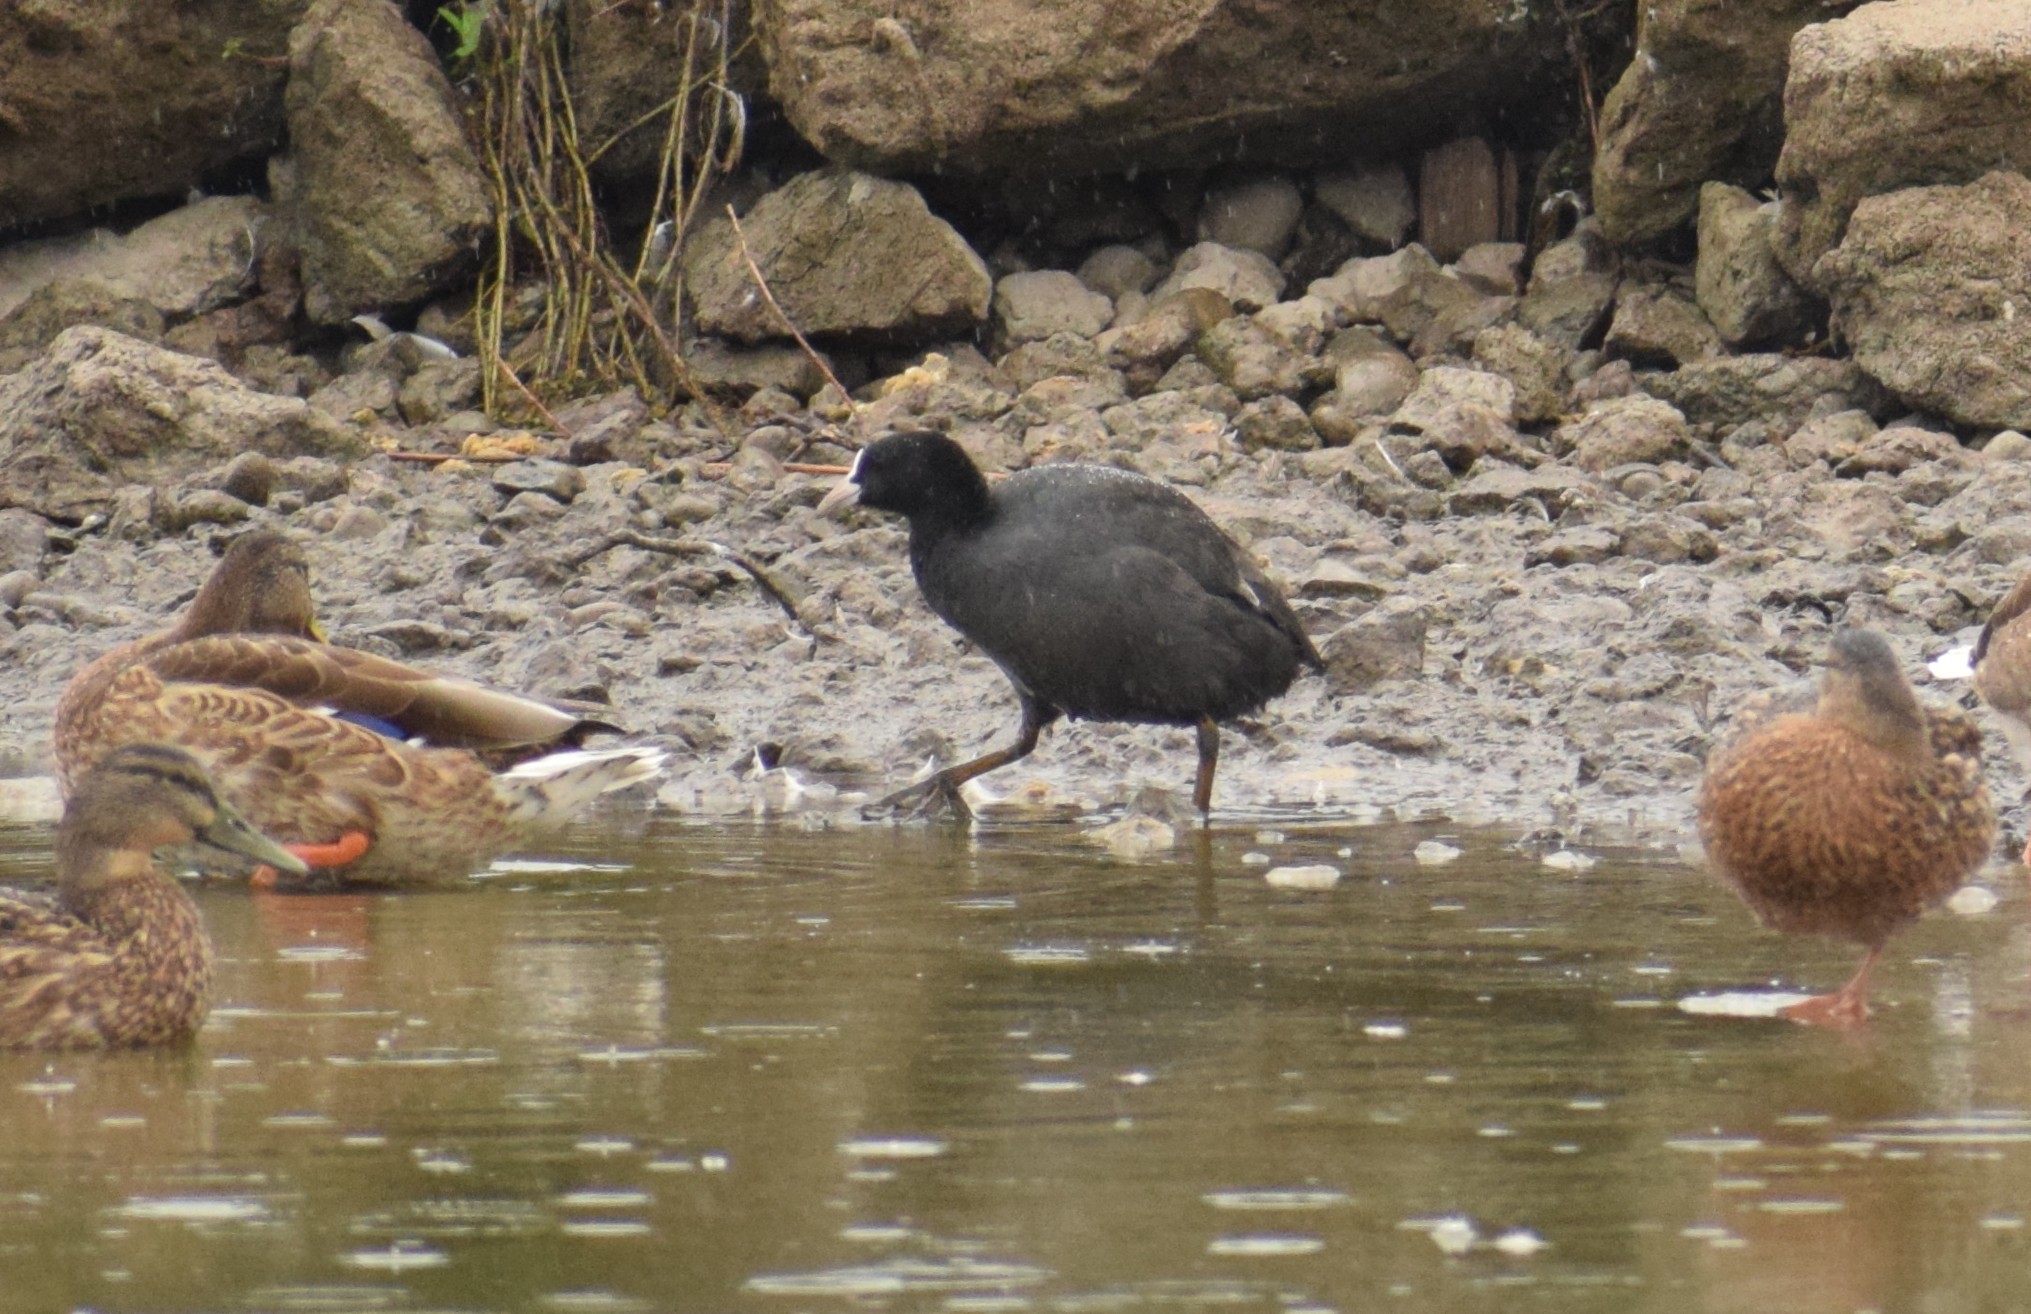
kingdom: Animalia
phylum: Chordata
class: Aves
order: Gruiformes
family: Rallidae
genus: Fulica
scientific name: Fulica atra
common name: Eurasian coot
